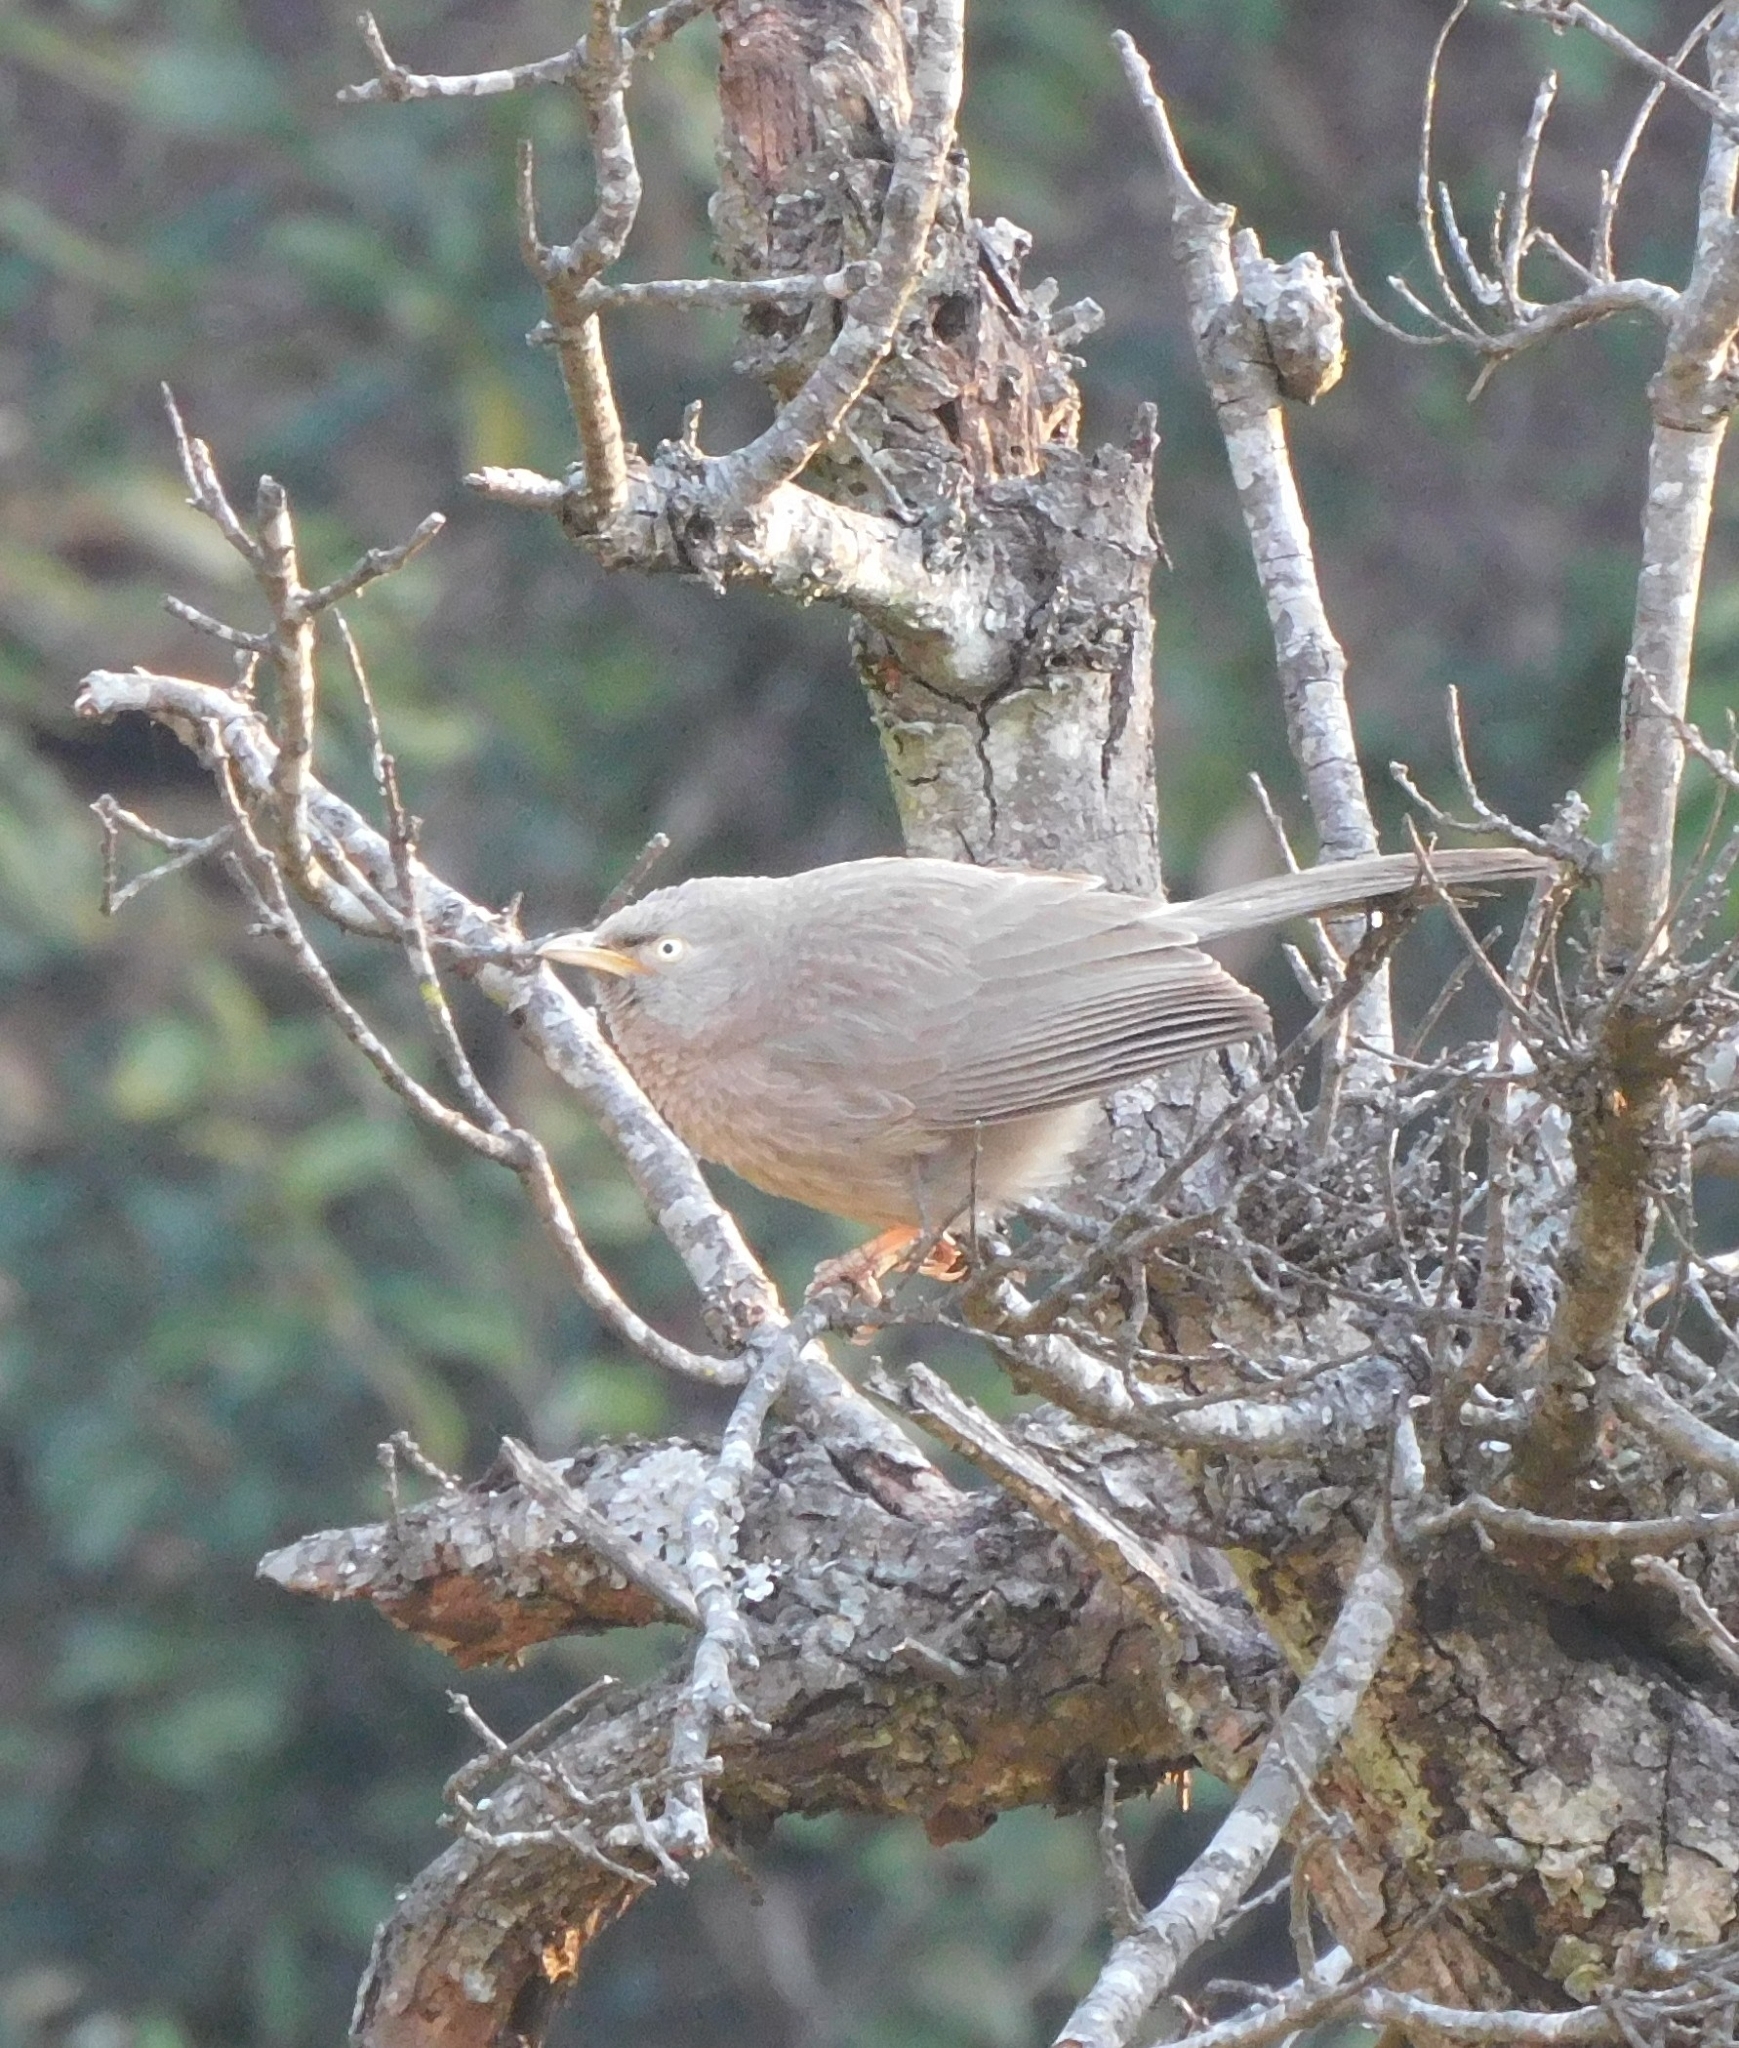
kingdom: Animalia
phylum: Chordata
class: Aves
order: Passeriformes
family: Leiothrichidae
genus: Turdoides
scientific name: Turdoides striata
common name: Jungle babbler
